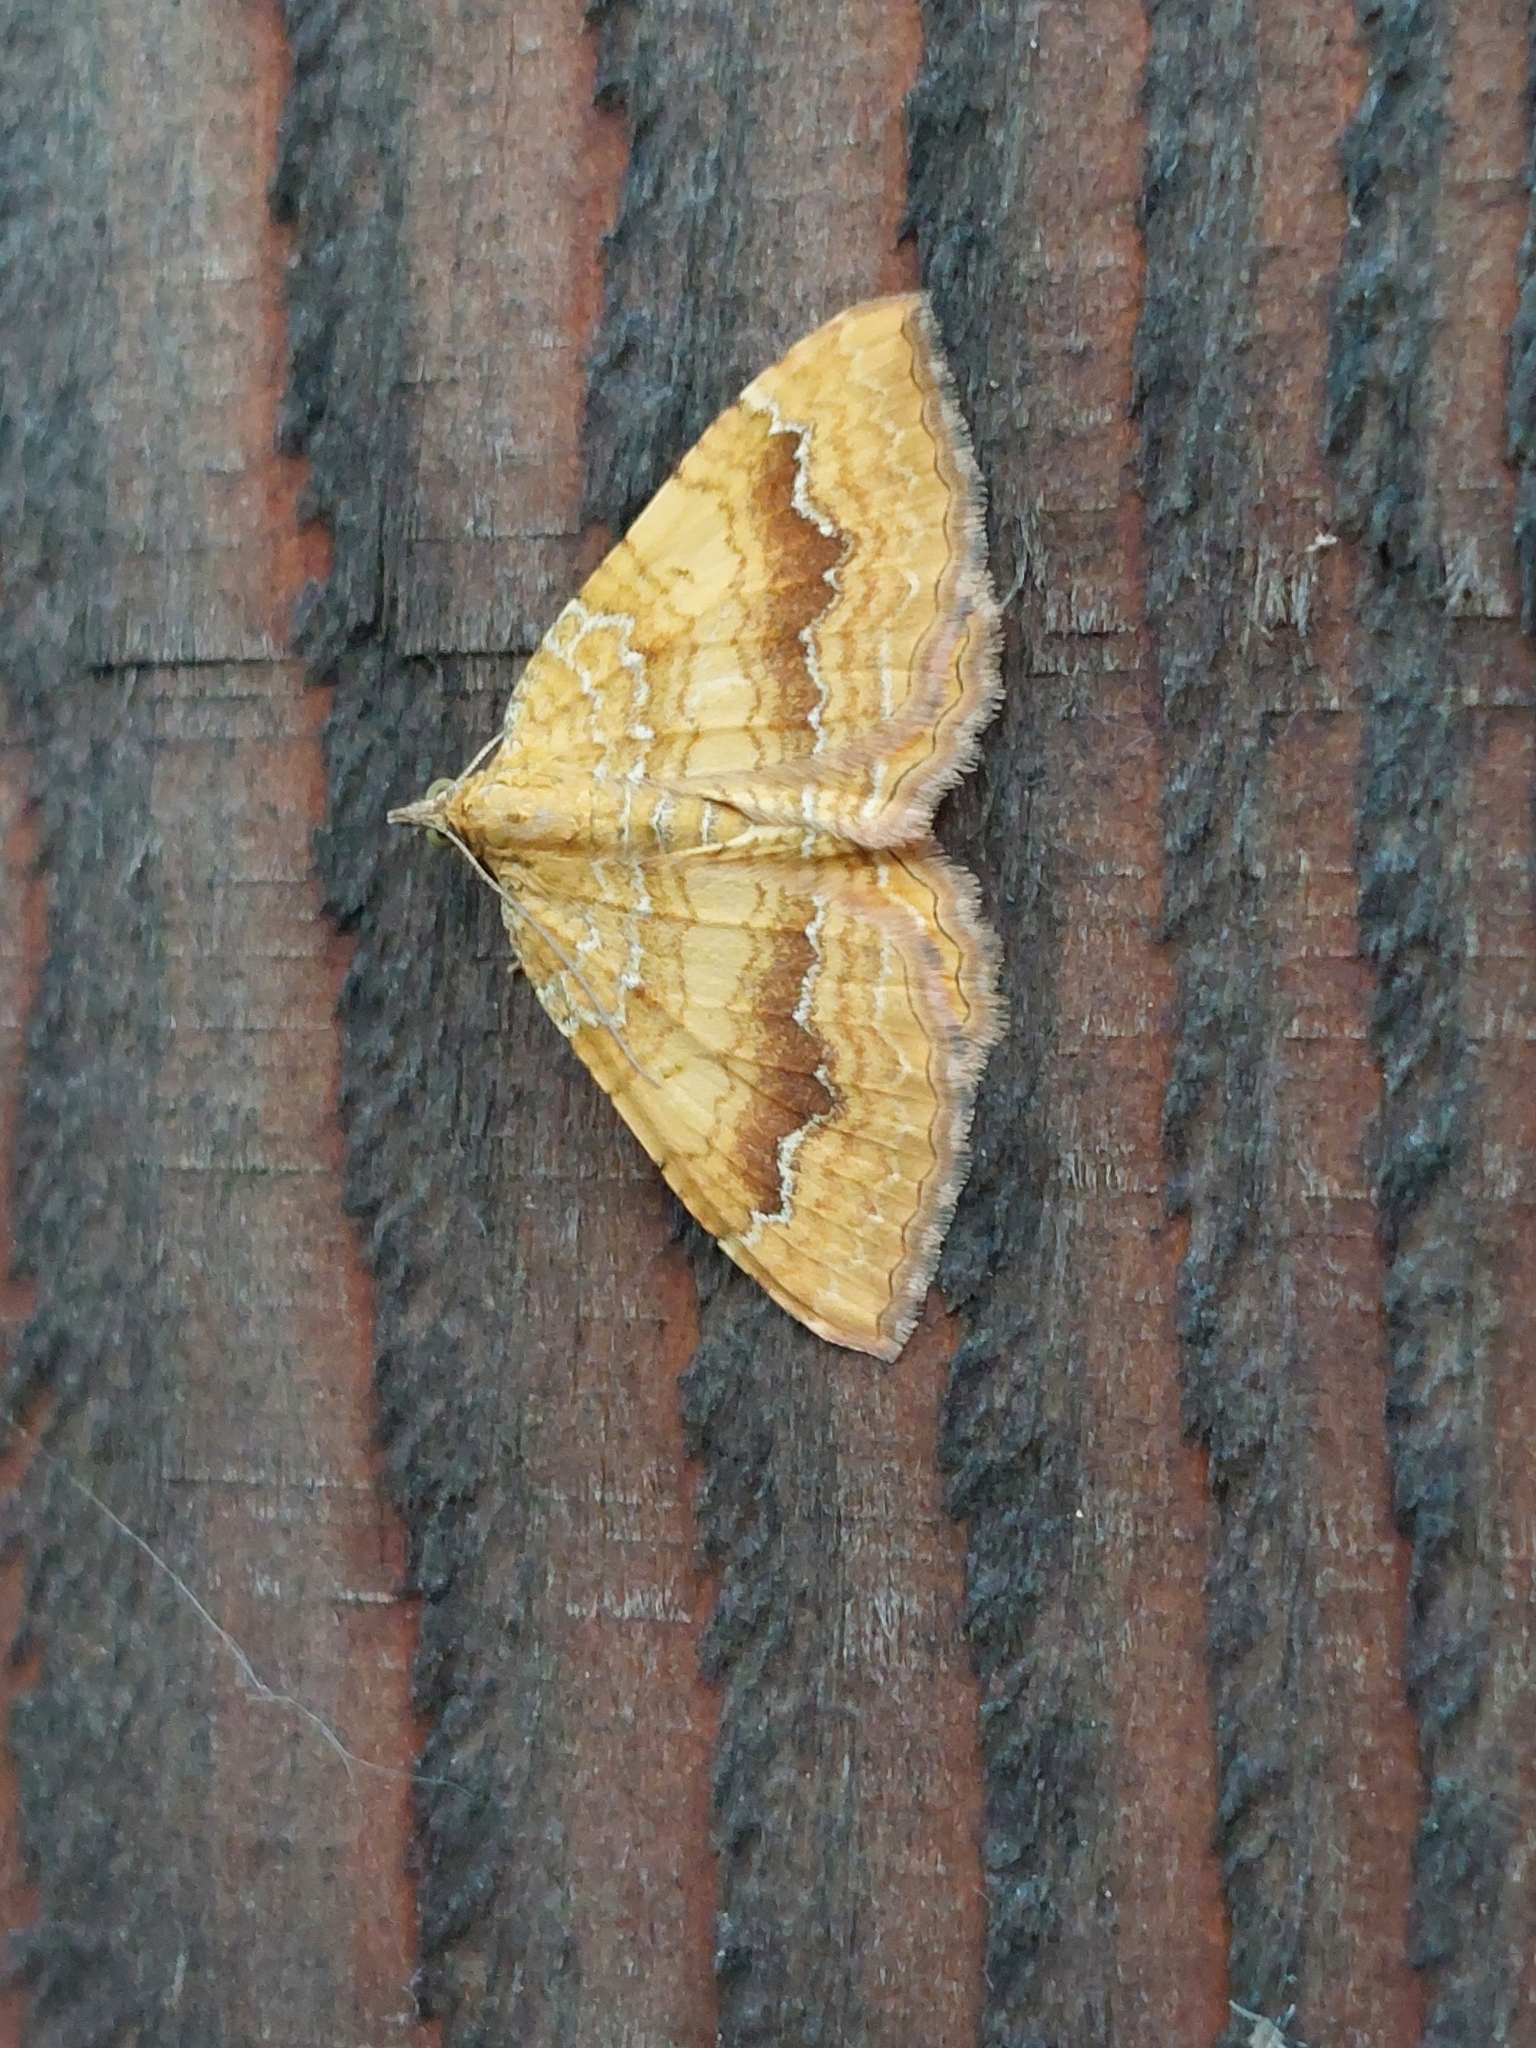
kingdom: Animalia
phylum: Arthropoda
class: Insecta
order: Lepidoptera
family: Geometridae
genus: Camptogramma
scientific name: Camptogramma bilineata
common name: Yellow shell
